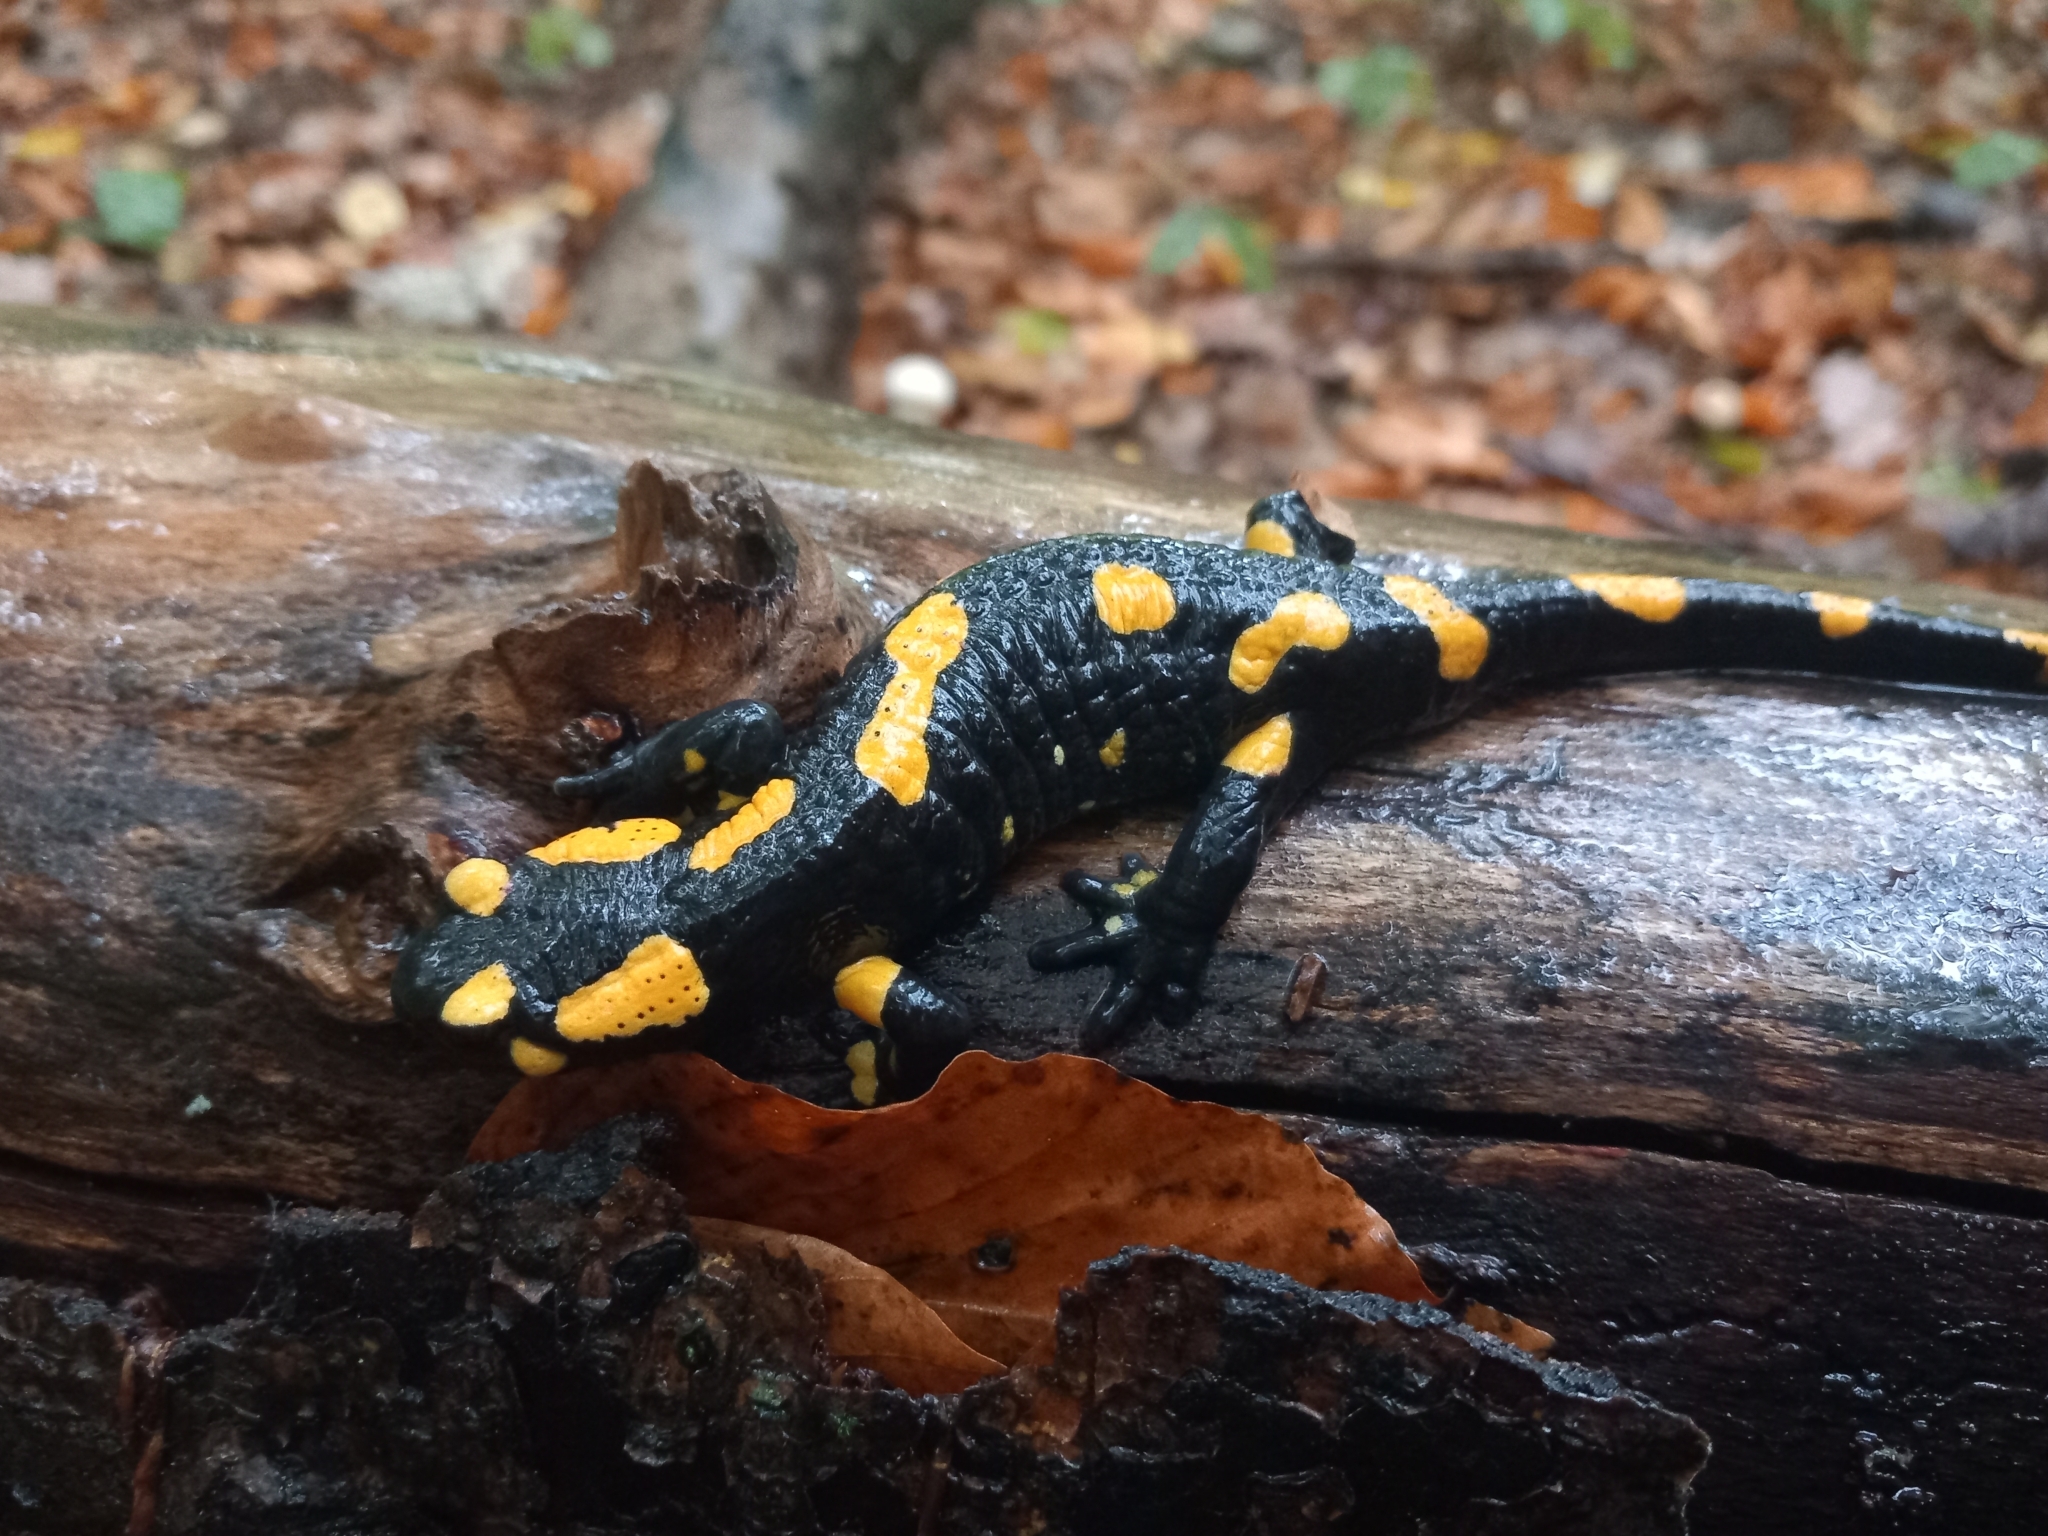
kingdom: Animalia
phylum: Chordata
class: Amphibia
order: Caudata
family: Salamandridae
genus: Salamandra
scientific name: Salamandra salamandra
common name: Fire salamander
